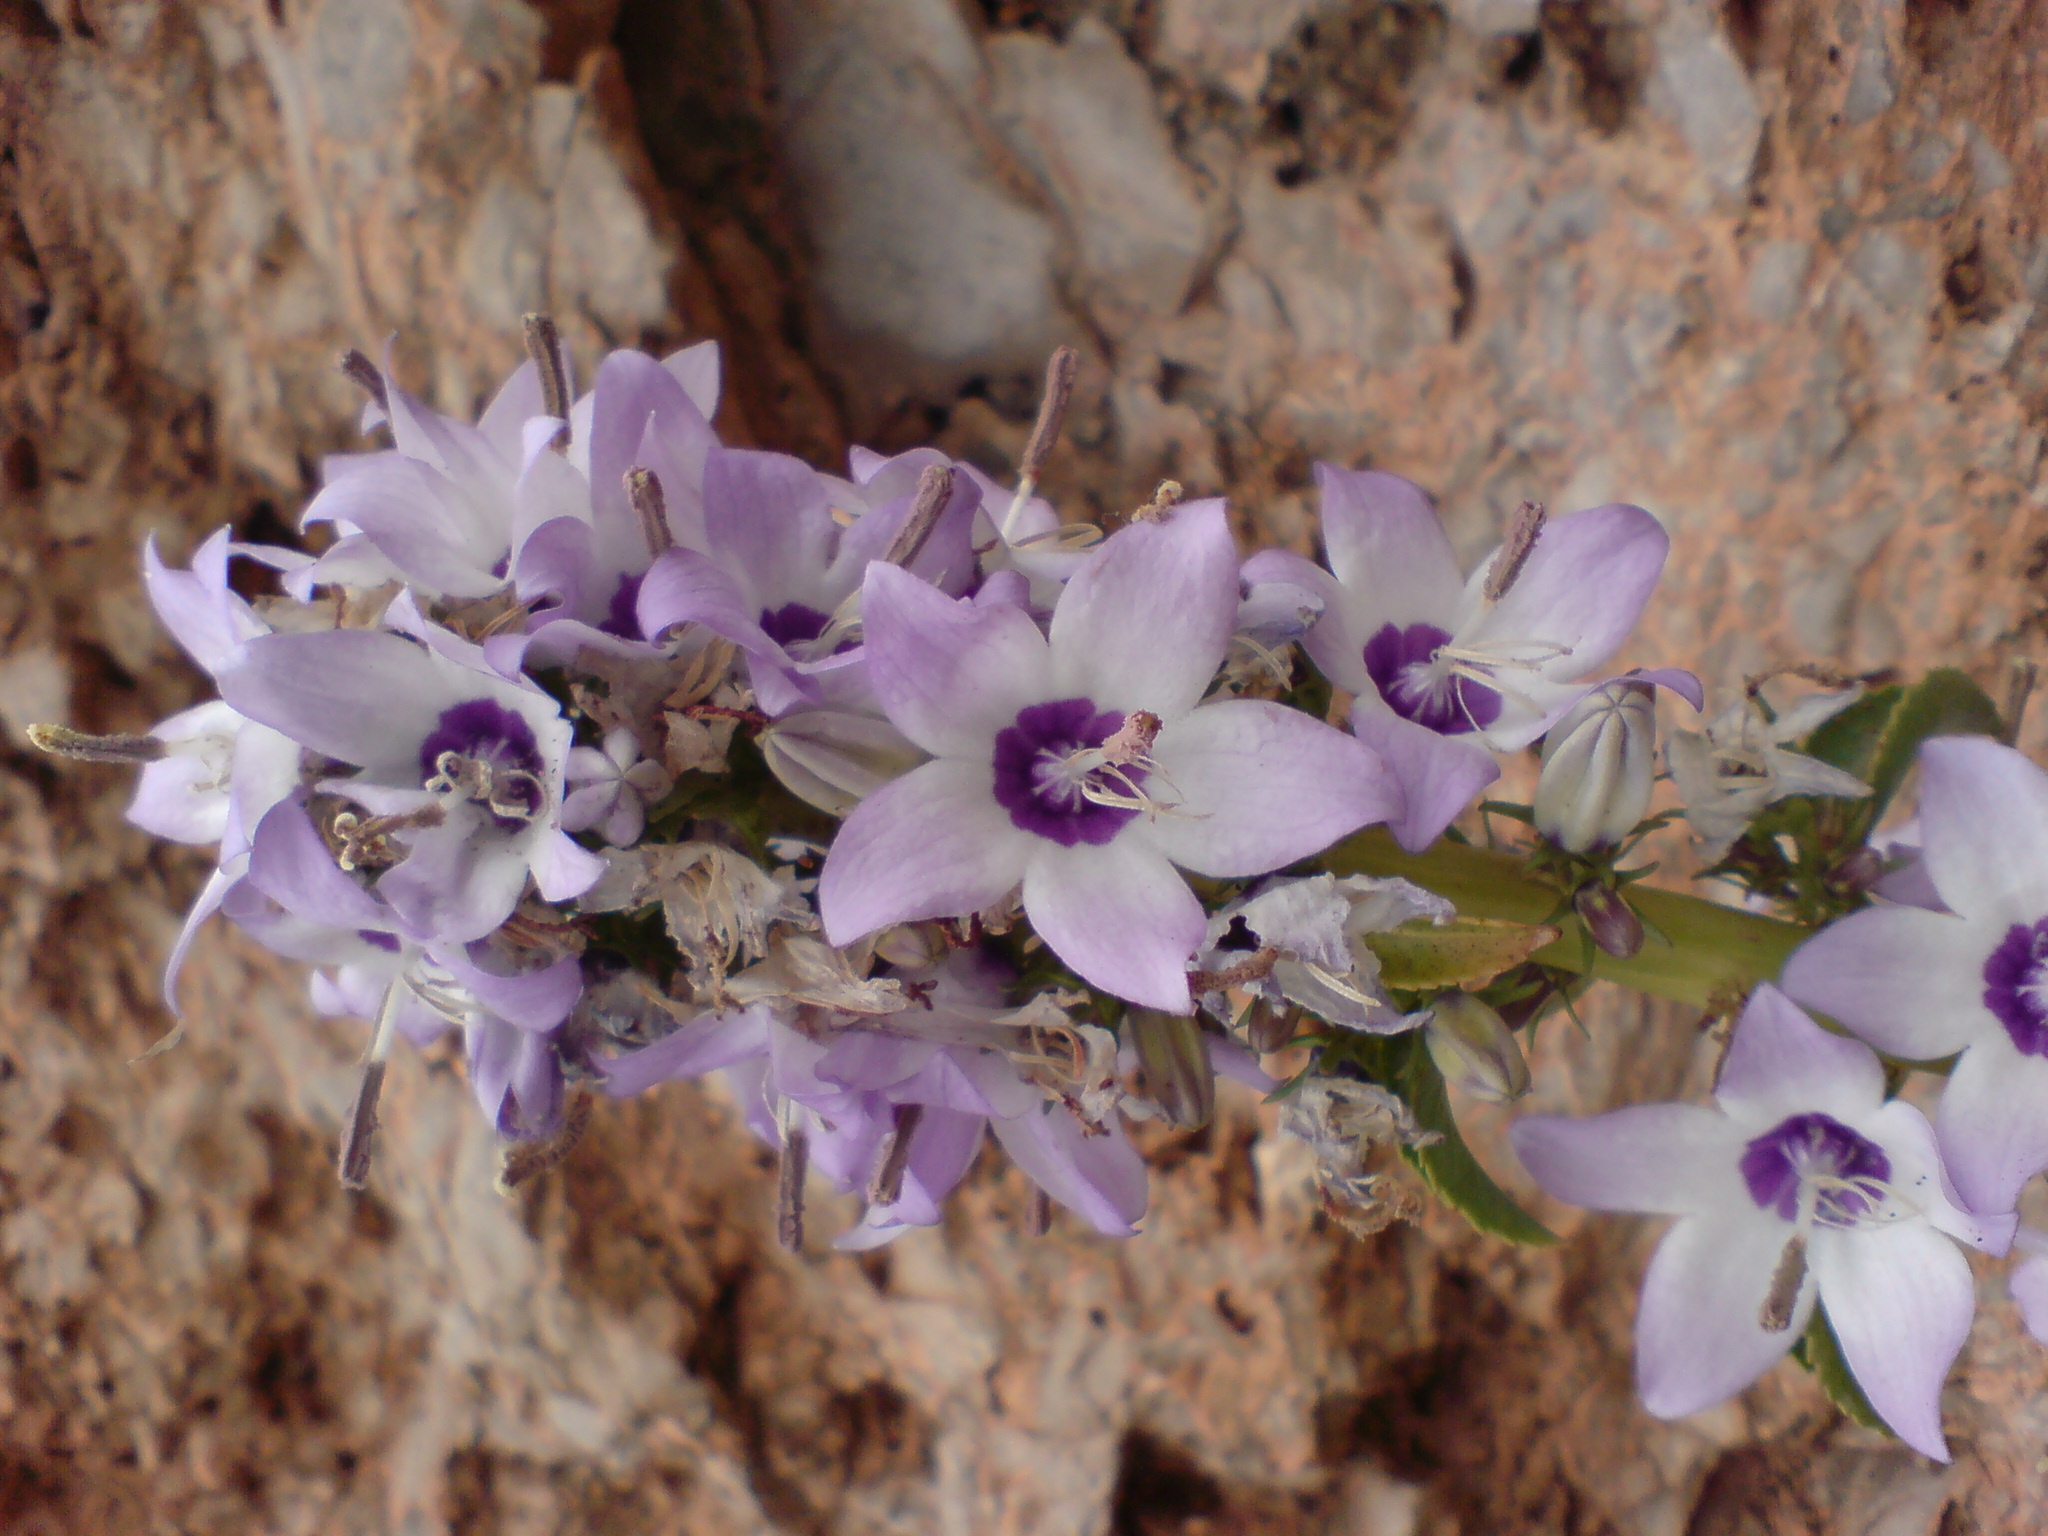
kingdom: Plantae
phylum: Tracheophyta
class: Magnoliopsida
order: Asterales
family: Campanulaceae
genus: Campanula
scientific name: Campanula versicolor
